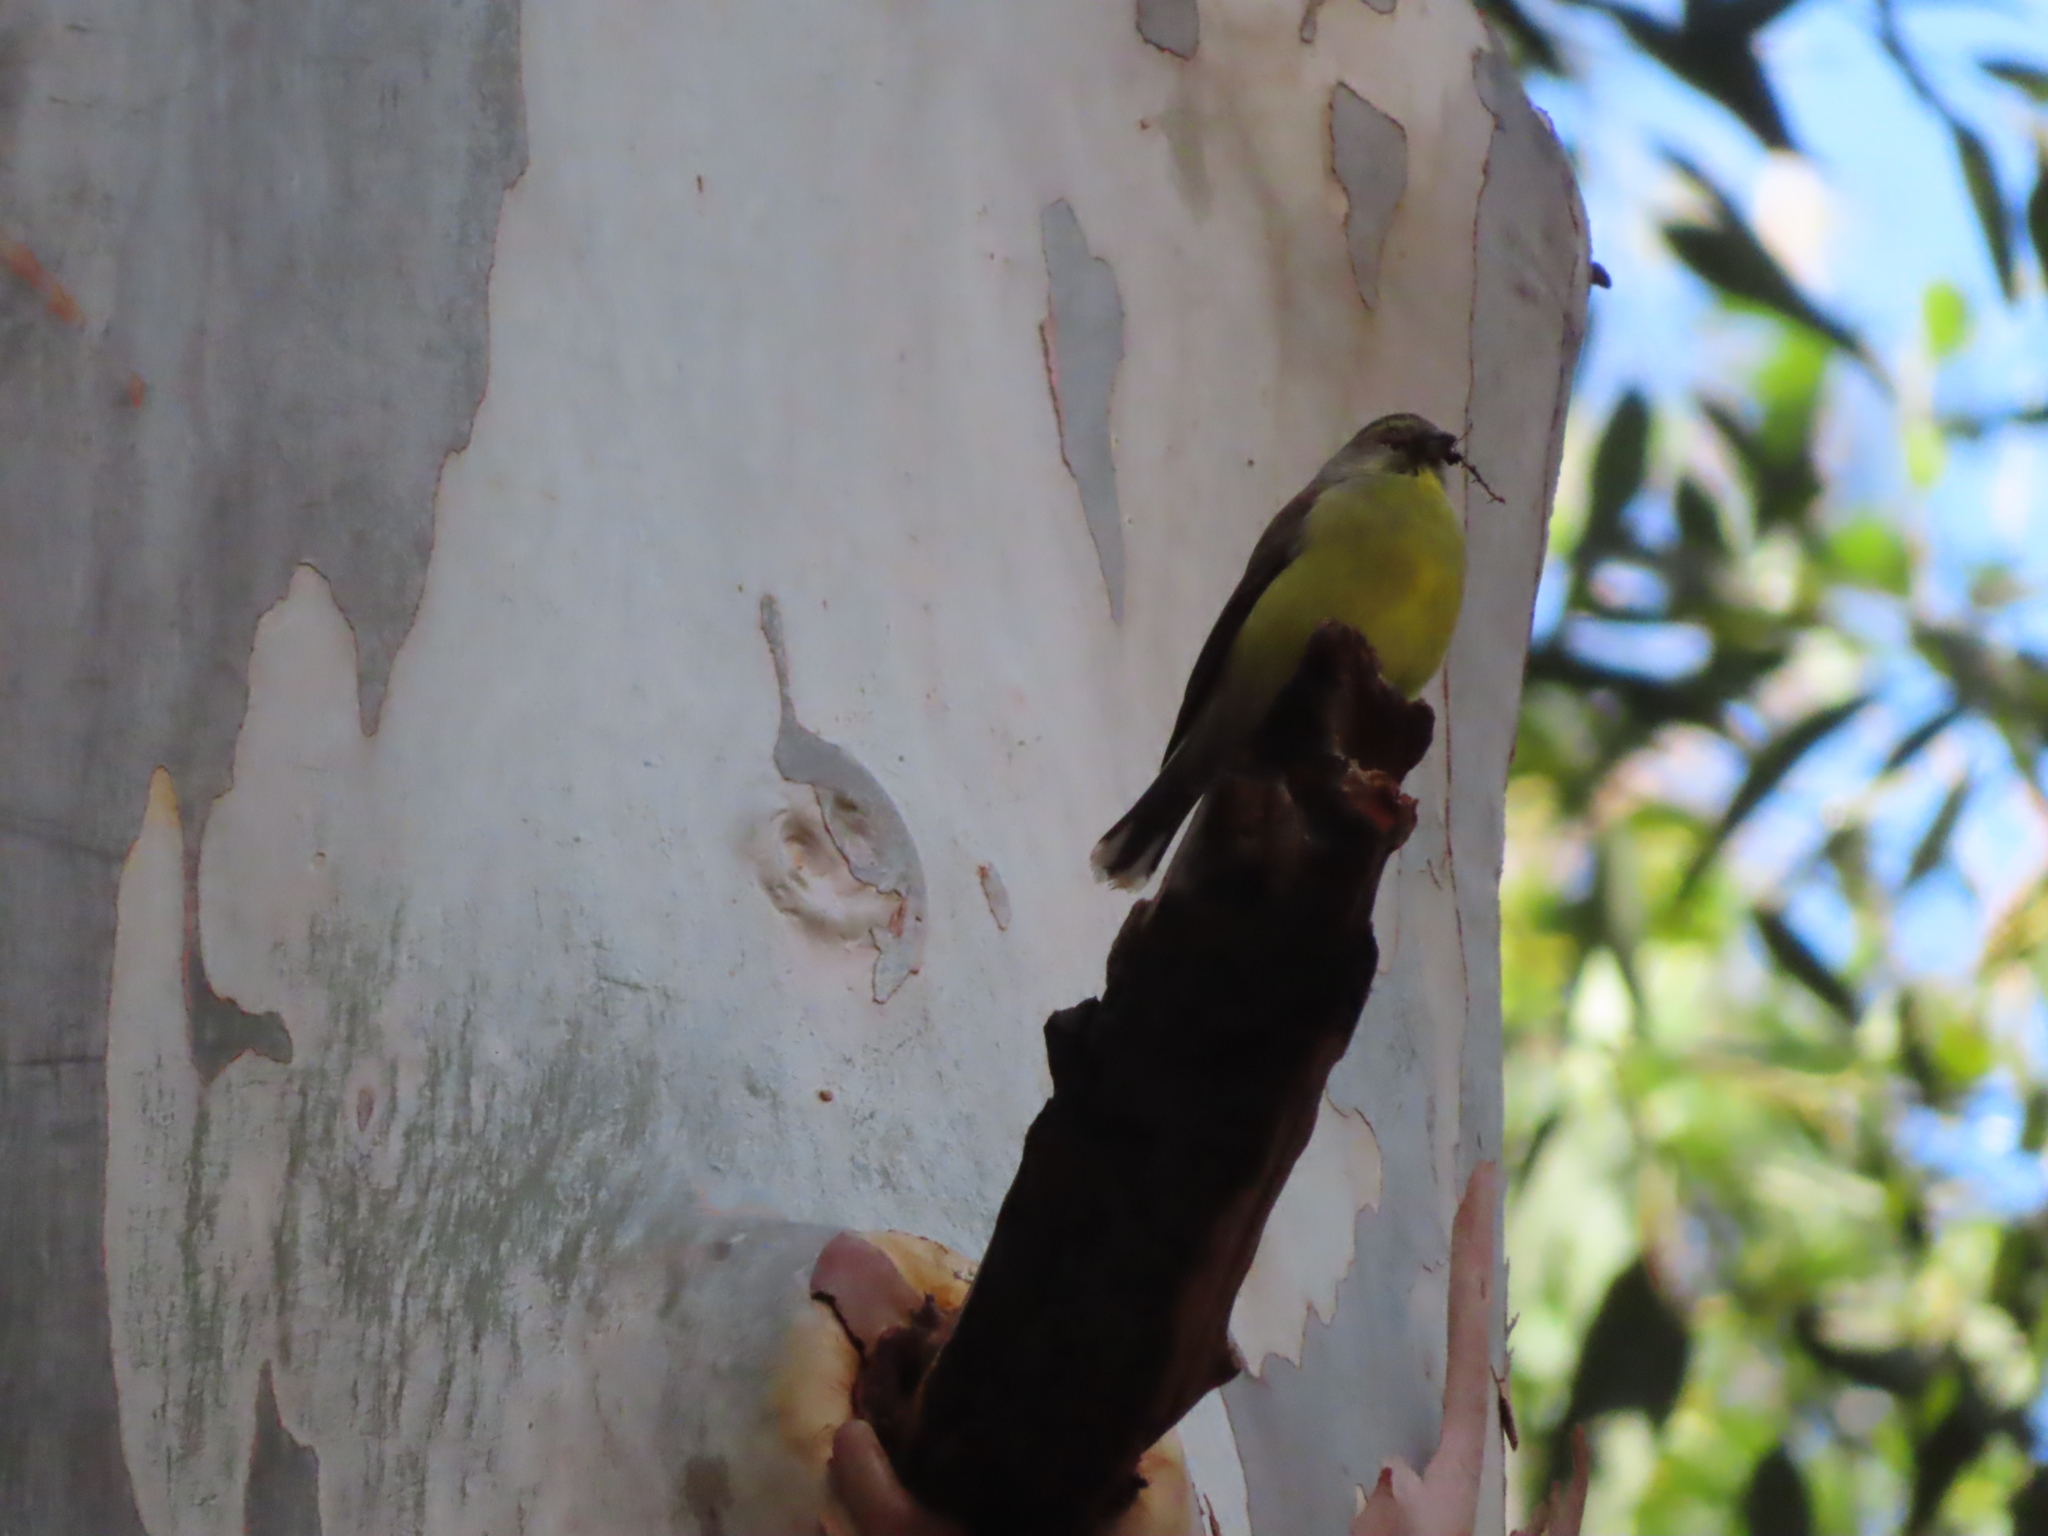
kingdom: Animalia
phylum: Chordata
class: Aves
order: Passeriformes
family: Fringillidae
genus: Crithagra
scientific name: Crithagra totta
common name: Cape siskin
